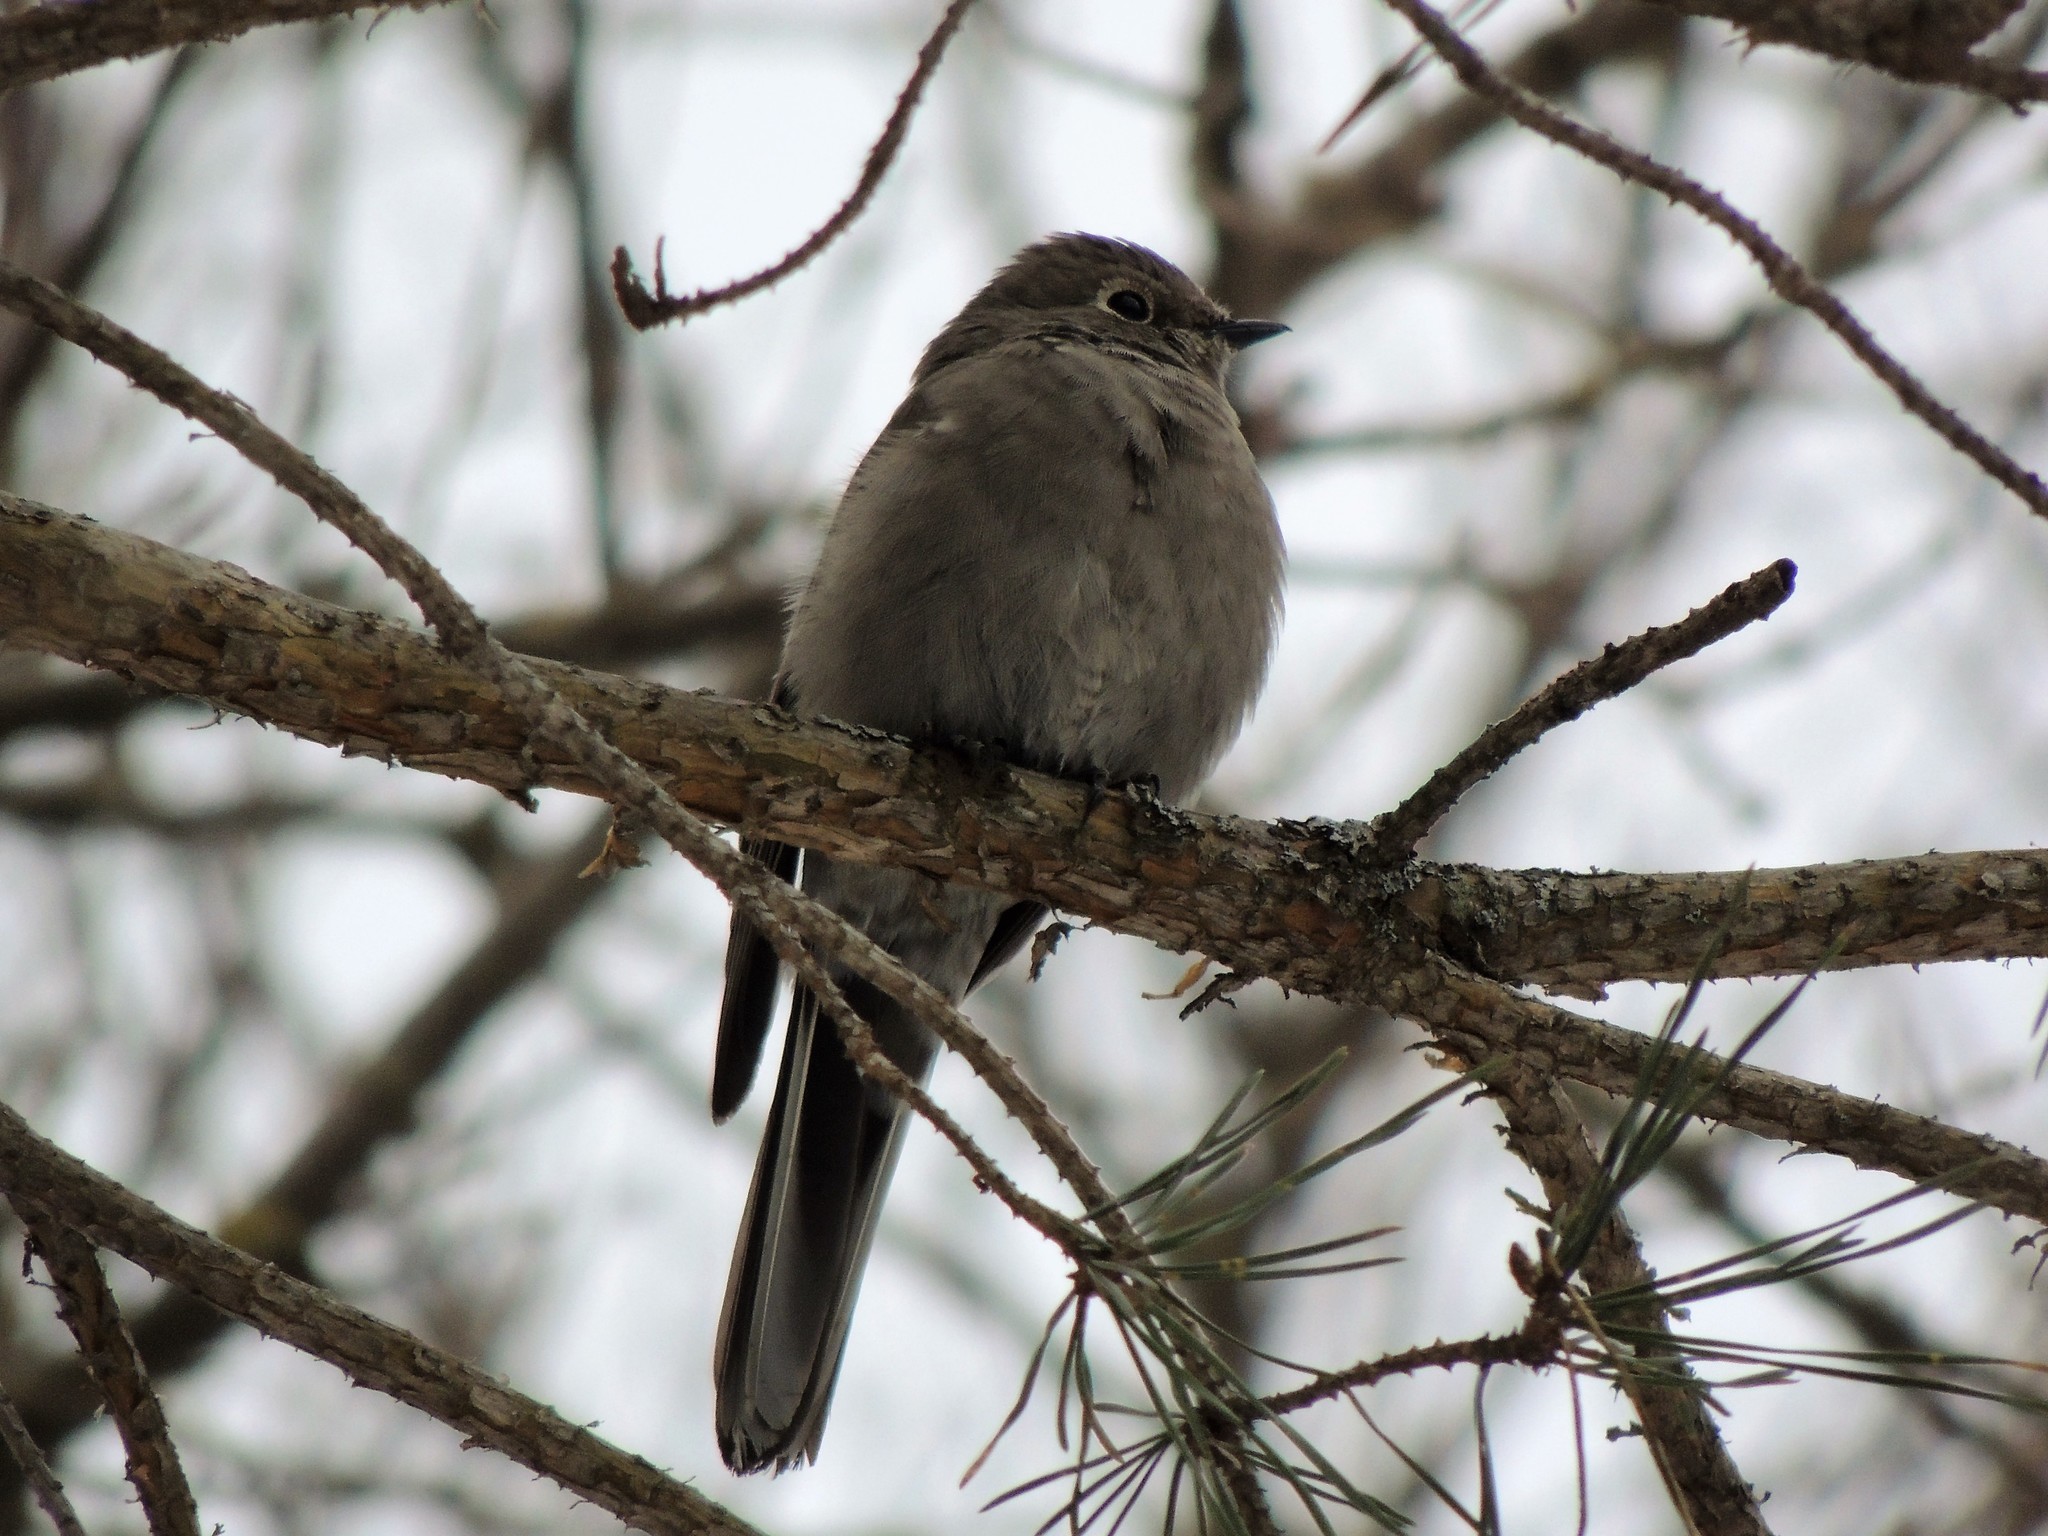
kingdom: Animalia
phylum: Chordata
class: Aves
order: Passeriformes
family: Turdidae
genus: Myadestes
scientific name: Myadestes townsendi
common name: Townsend's solitaire
